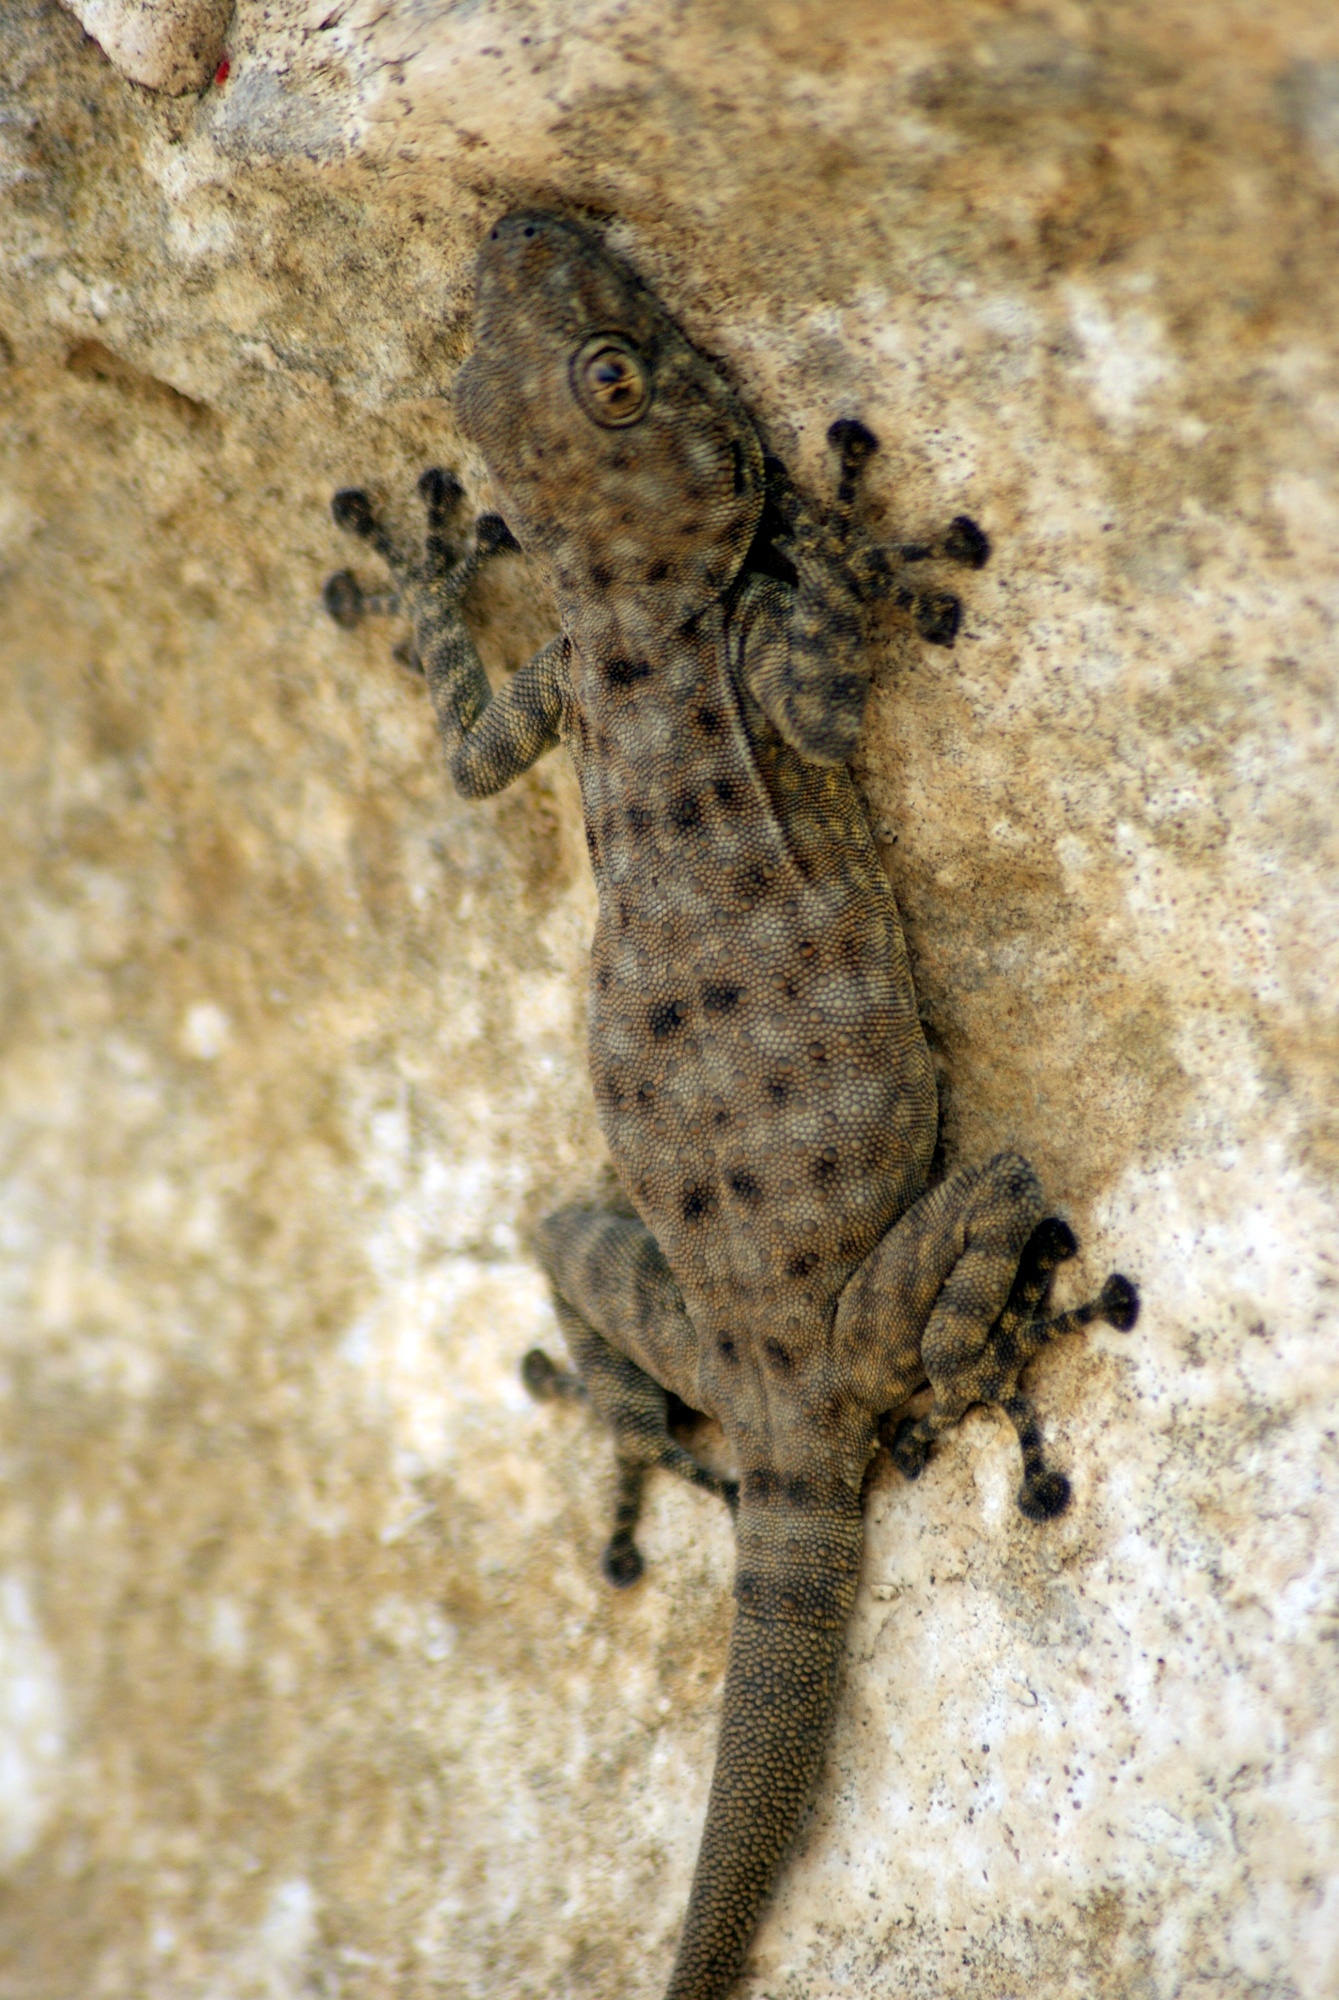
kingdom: Animalia
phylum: Chordata
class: Squamata
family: Phyllodactylidae
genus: Ptyodactylus
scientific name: Ptyodactylus puiseuxi
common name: Israeli fan-fingered gecko
